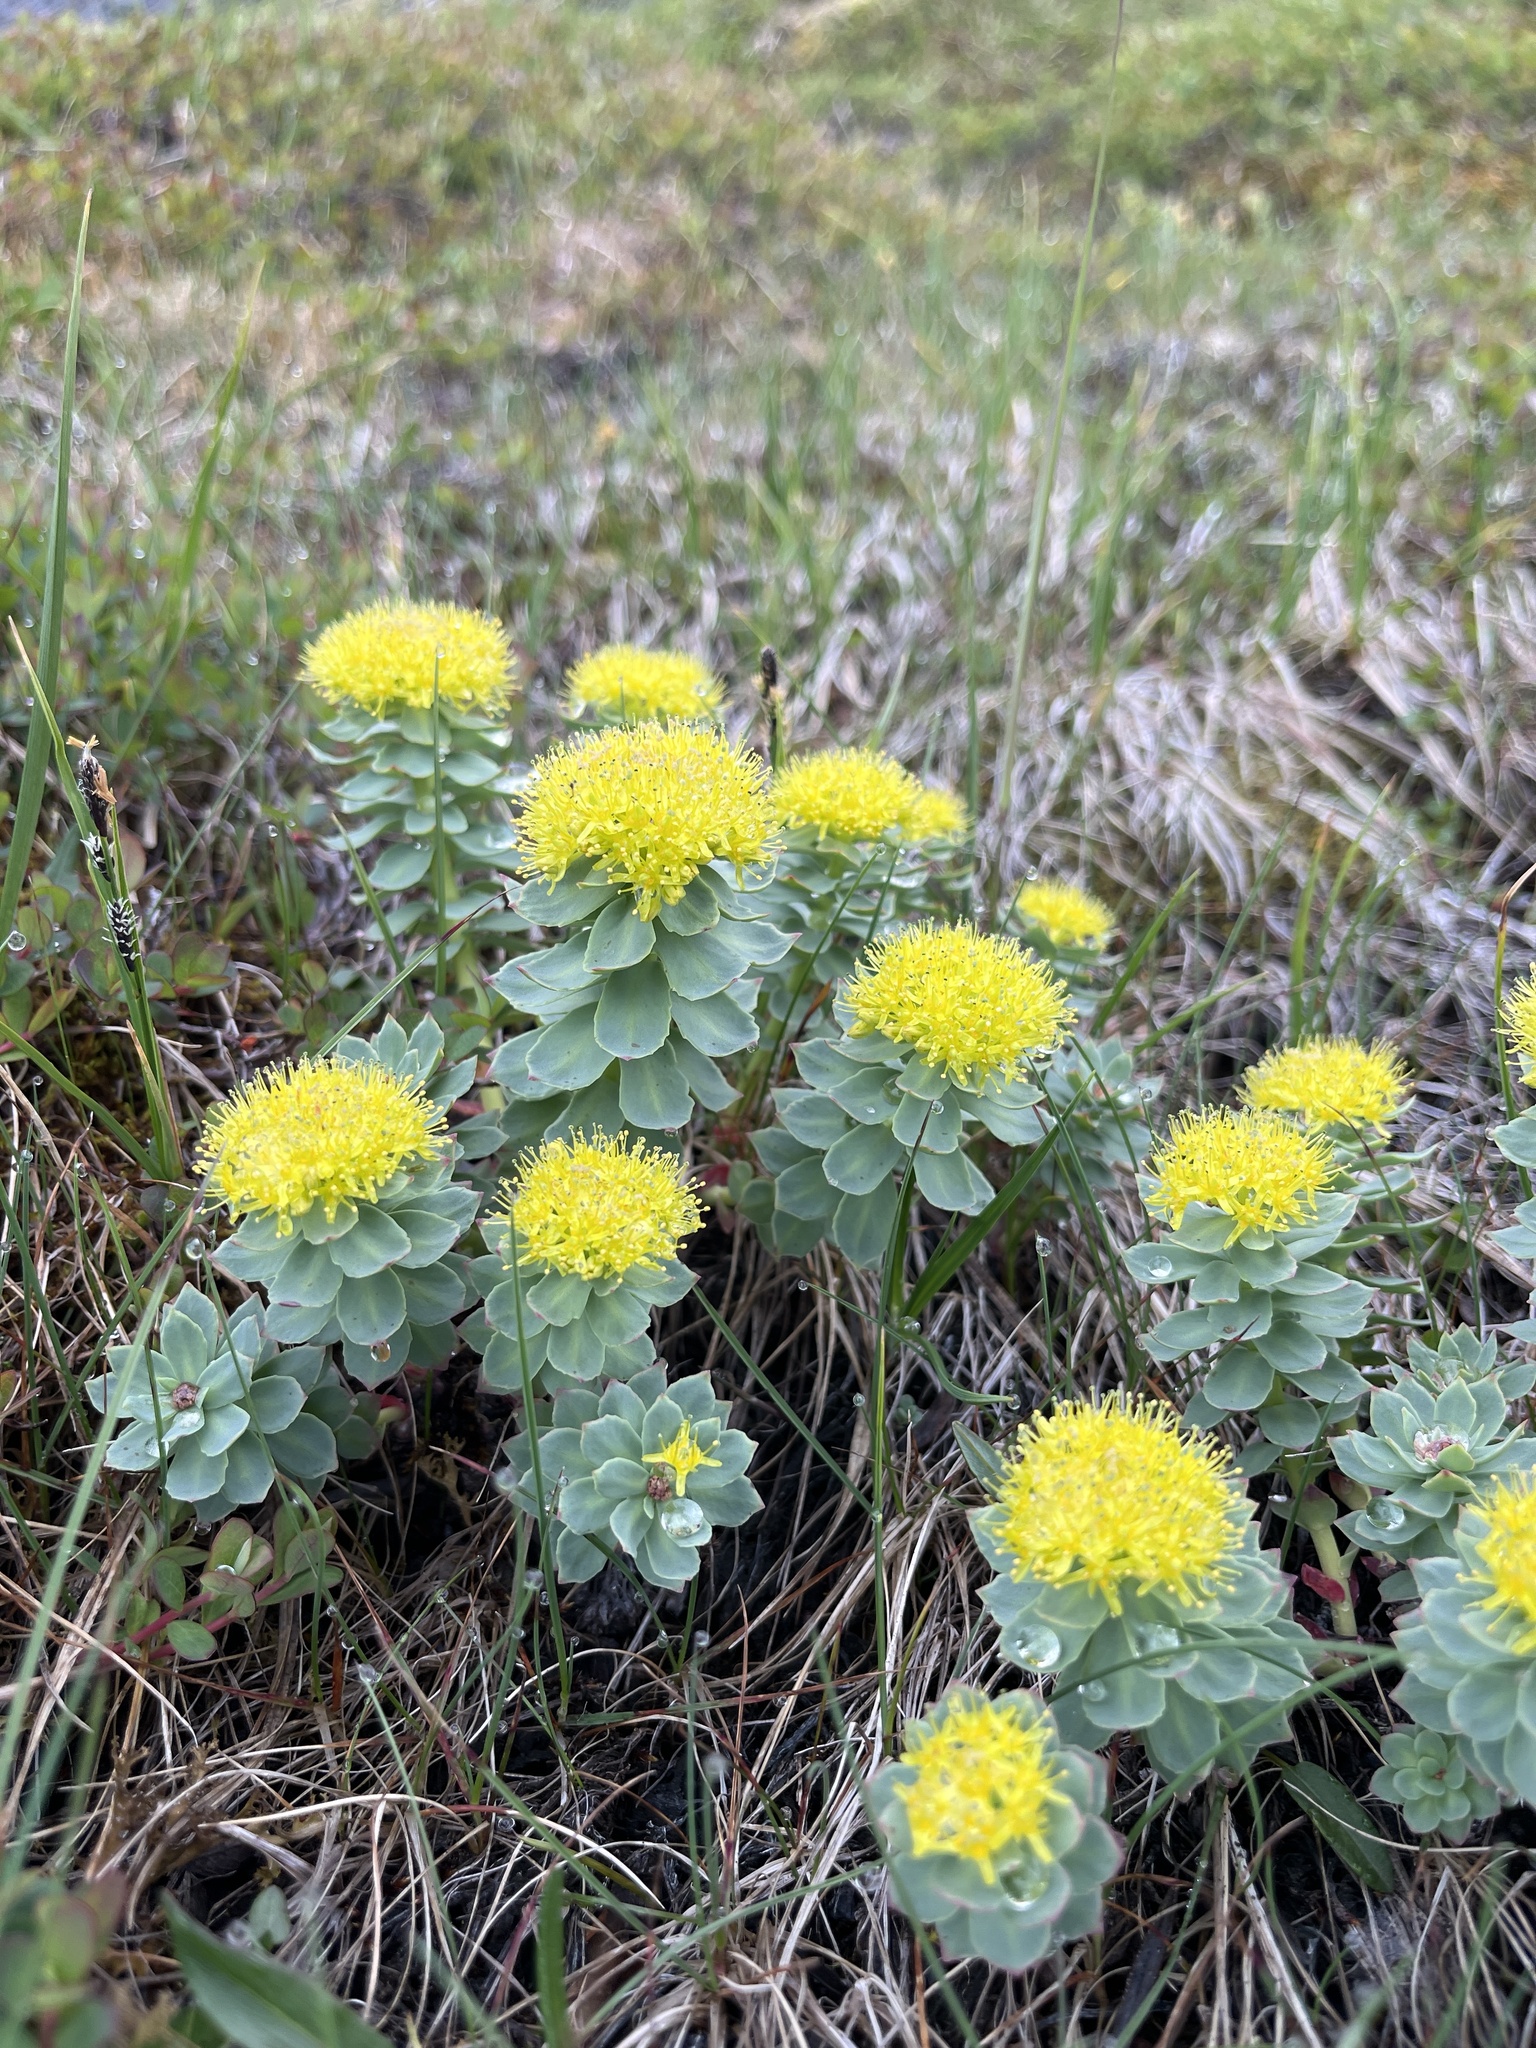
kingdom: Plantae
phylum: Tracheophyta
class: Magnoliopsida
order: Saxifragales
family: Crassulaceae
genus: Rhodiola
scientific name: Rhodiola rosea
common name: Roseroot
